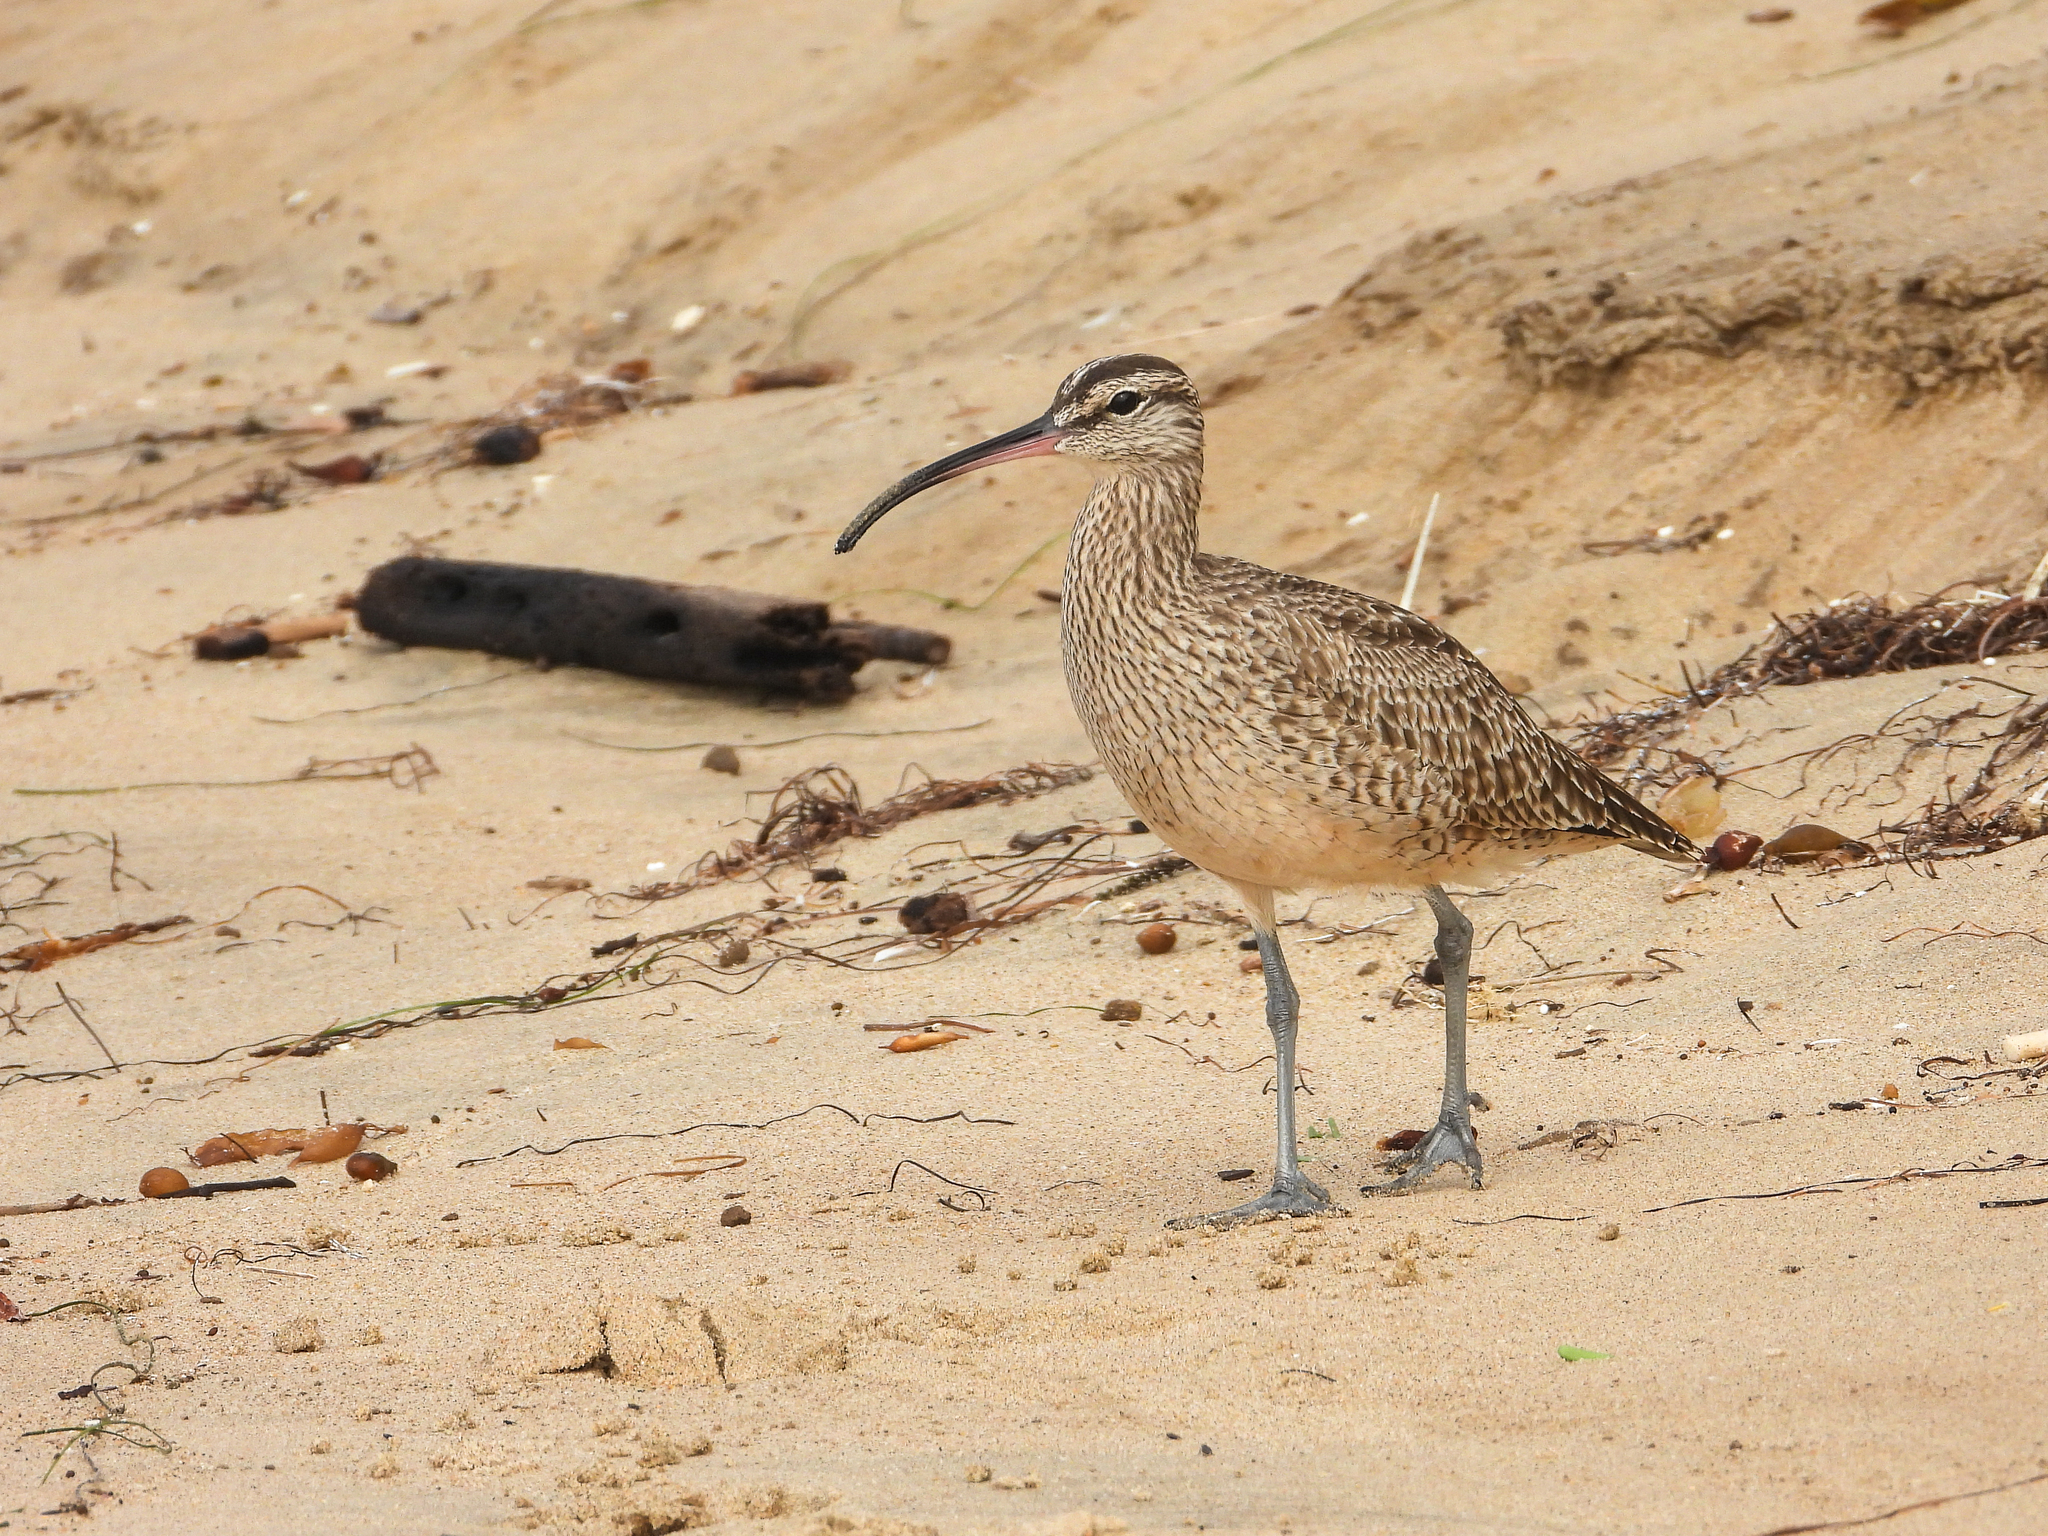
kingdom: Animalia
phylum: Chordata
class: Aves
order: Charadriiformes
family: Scolopacidae
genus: Numenius
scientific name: Numenius phaeopus
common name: Whimbrel
